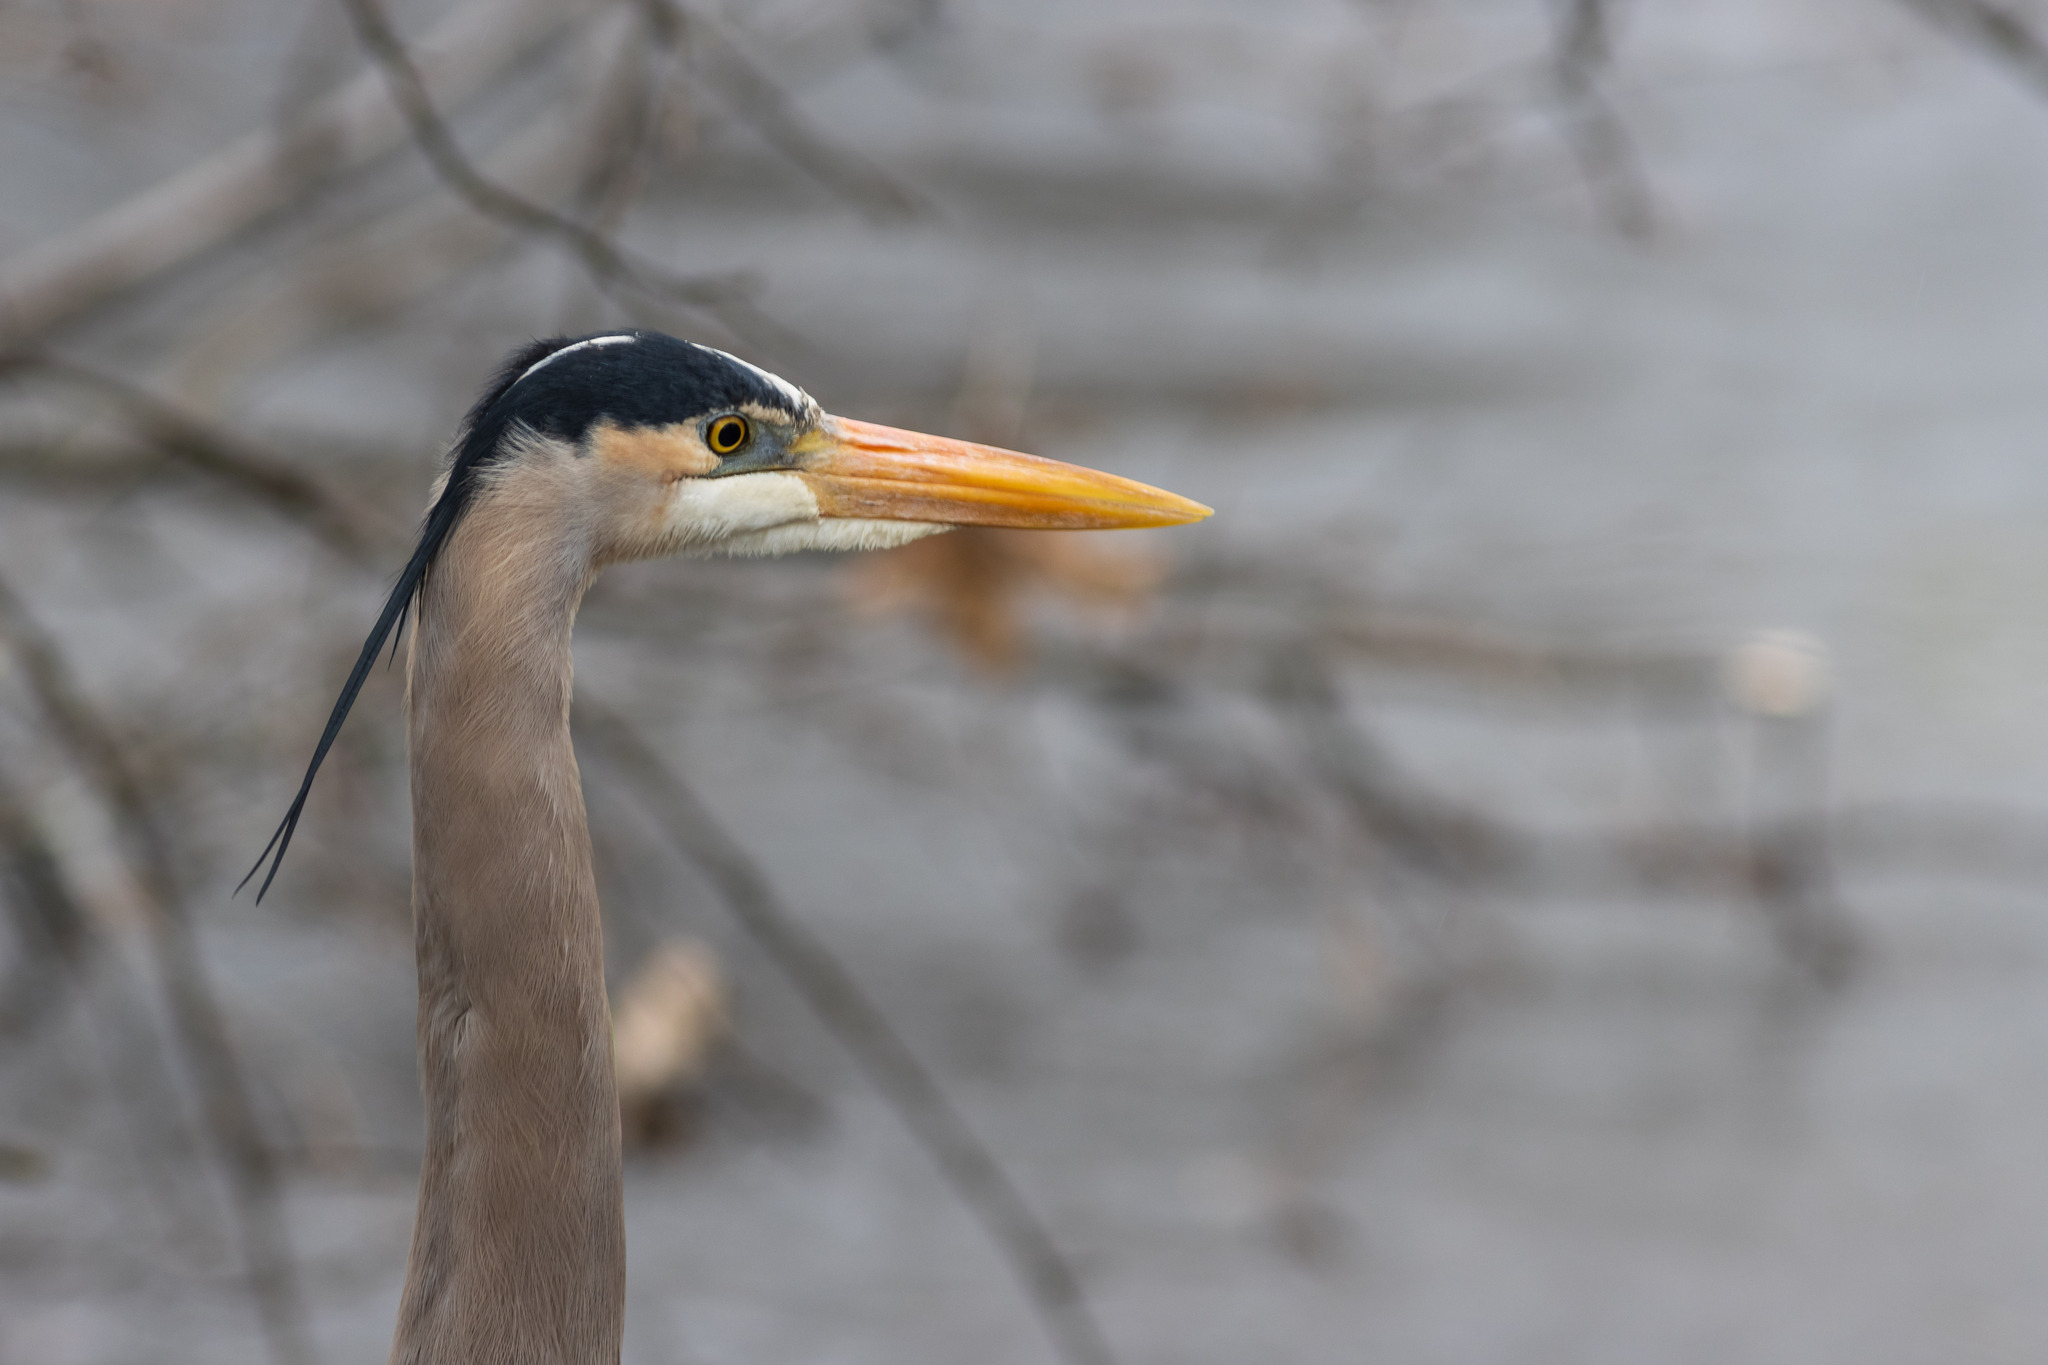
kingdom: Animalia
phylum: Chordata
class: Aves
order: Pelecaniformes
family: Ardeidae
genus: Ardea
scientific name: Ardea herodias
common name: Great blue heron
